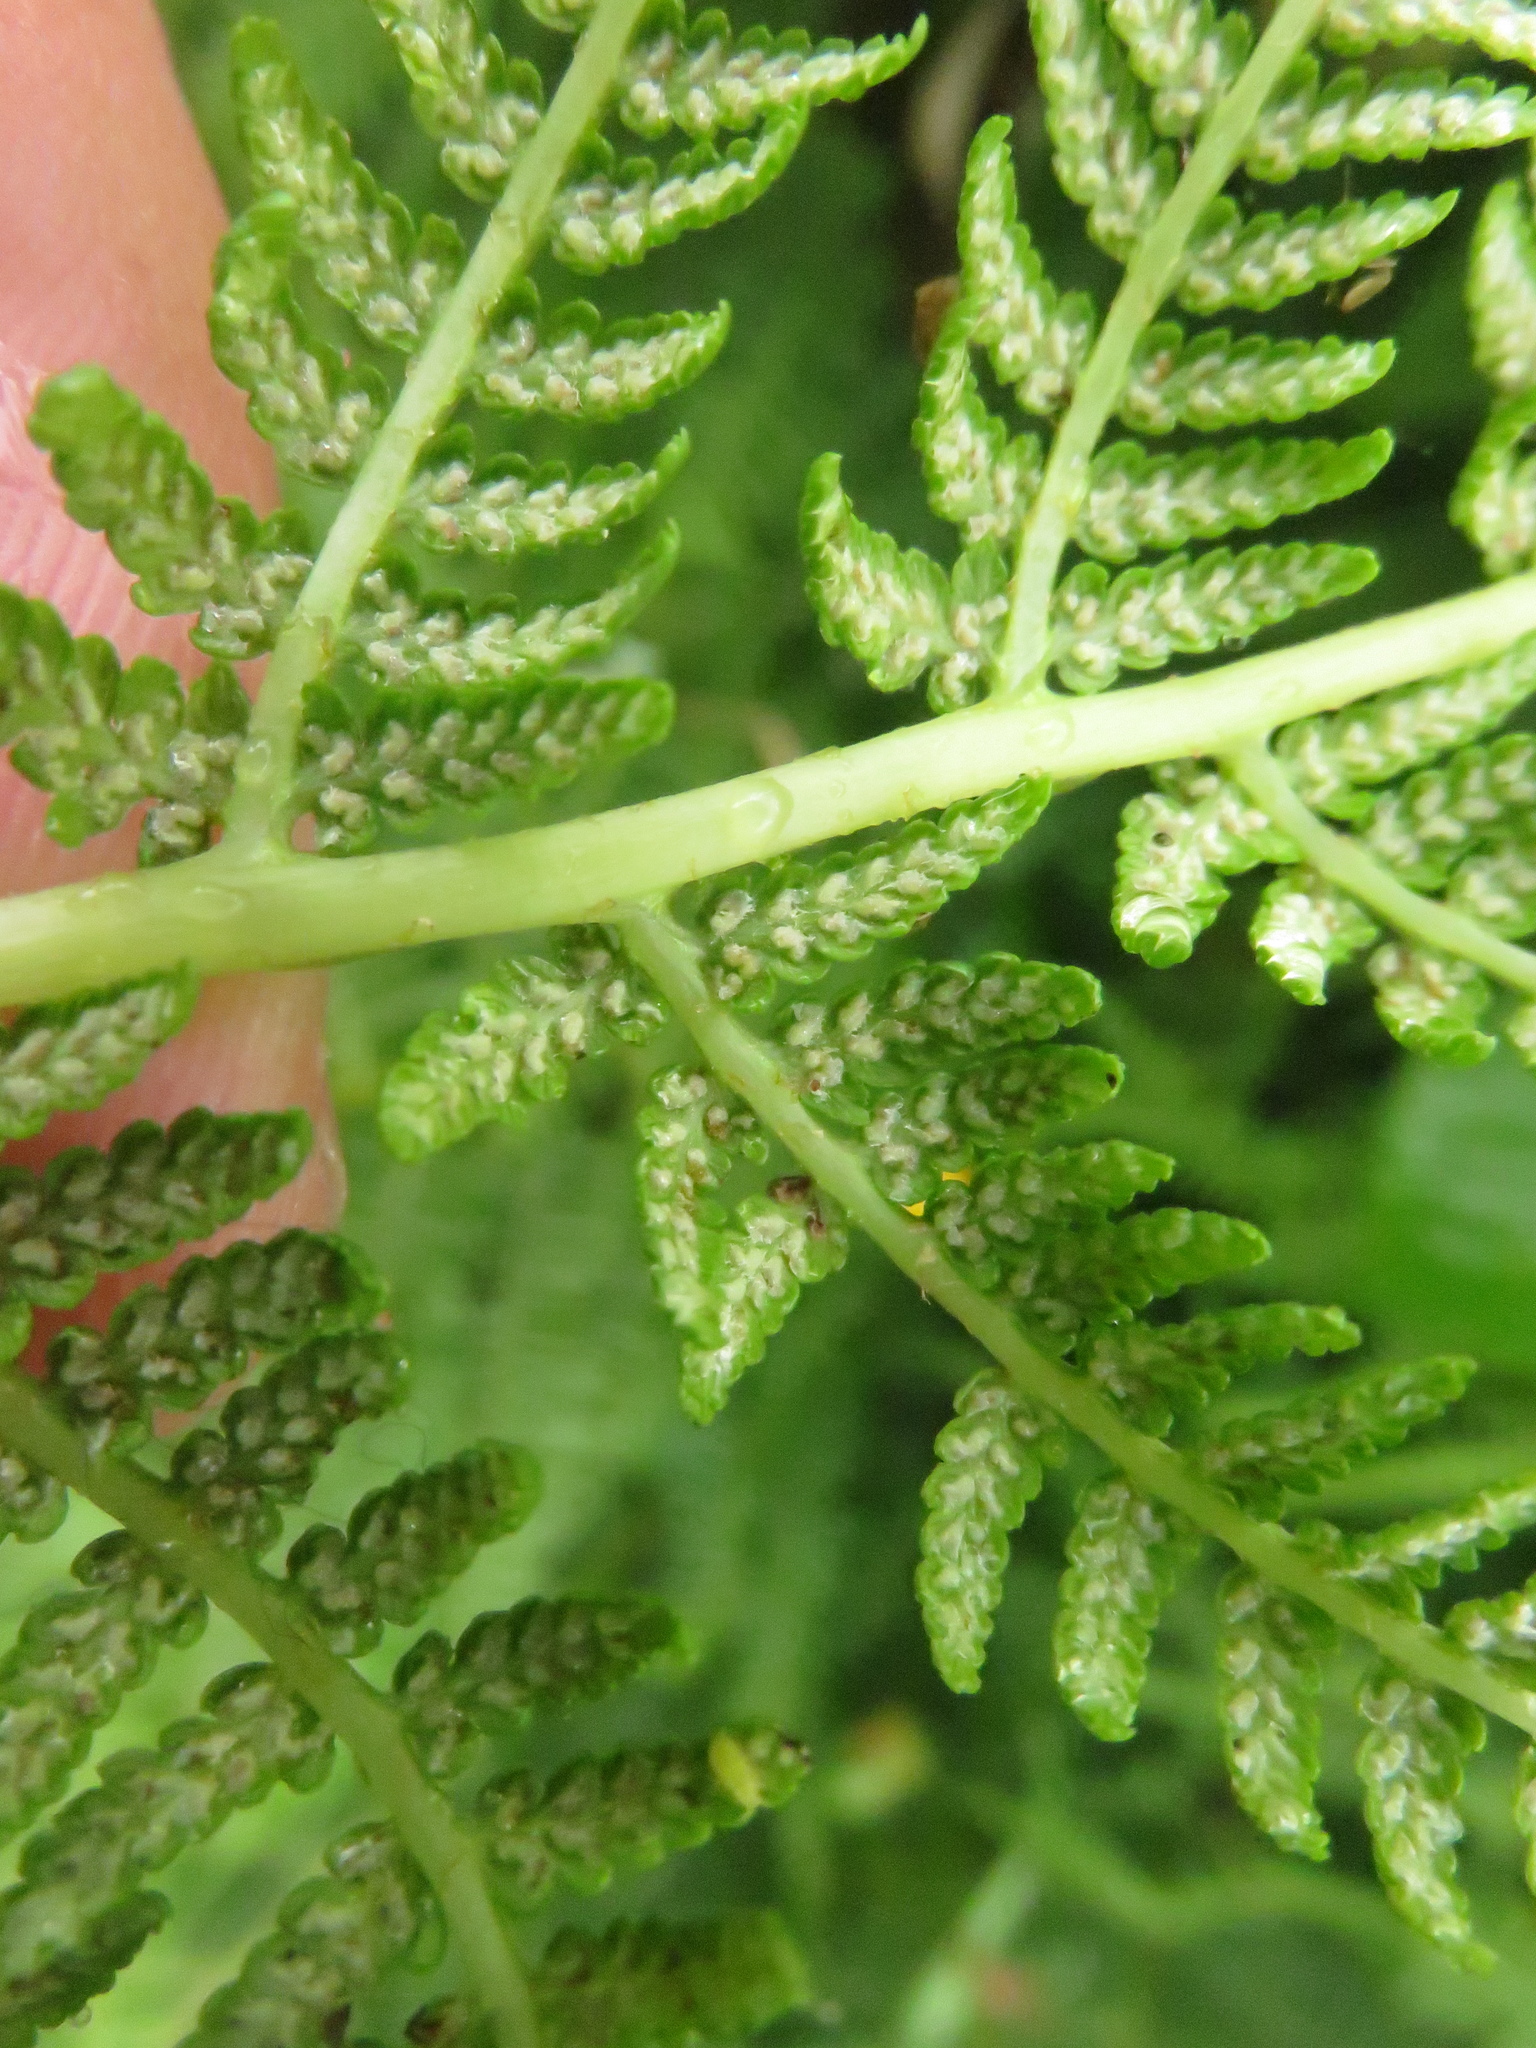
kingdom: Plantae
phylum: Tracheophyta
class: Polypodiopsida
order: Polypodiales
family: Athyriaceae
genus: Athyrium
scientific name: Athyrium filix-femina
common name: Lady fern
